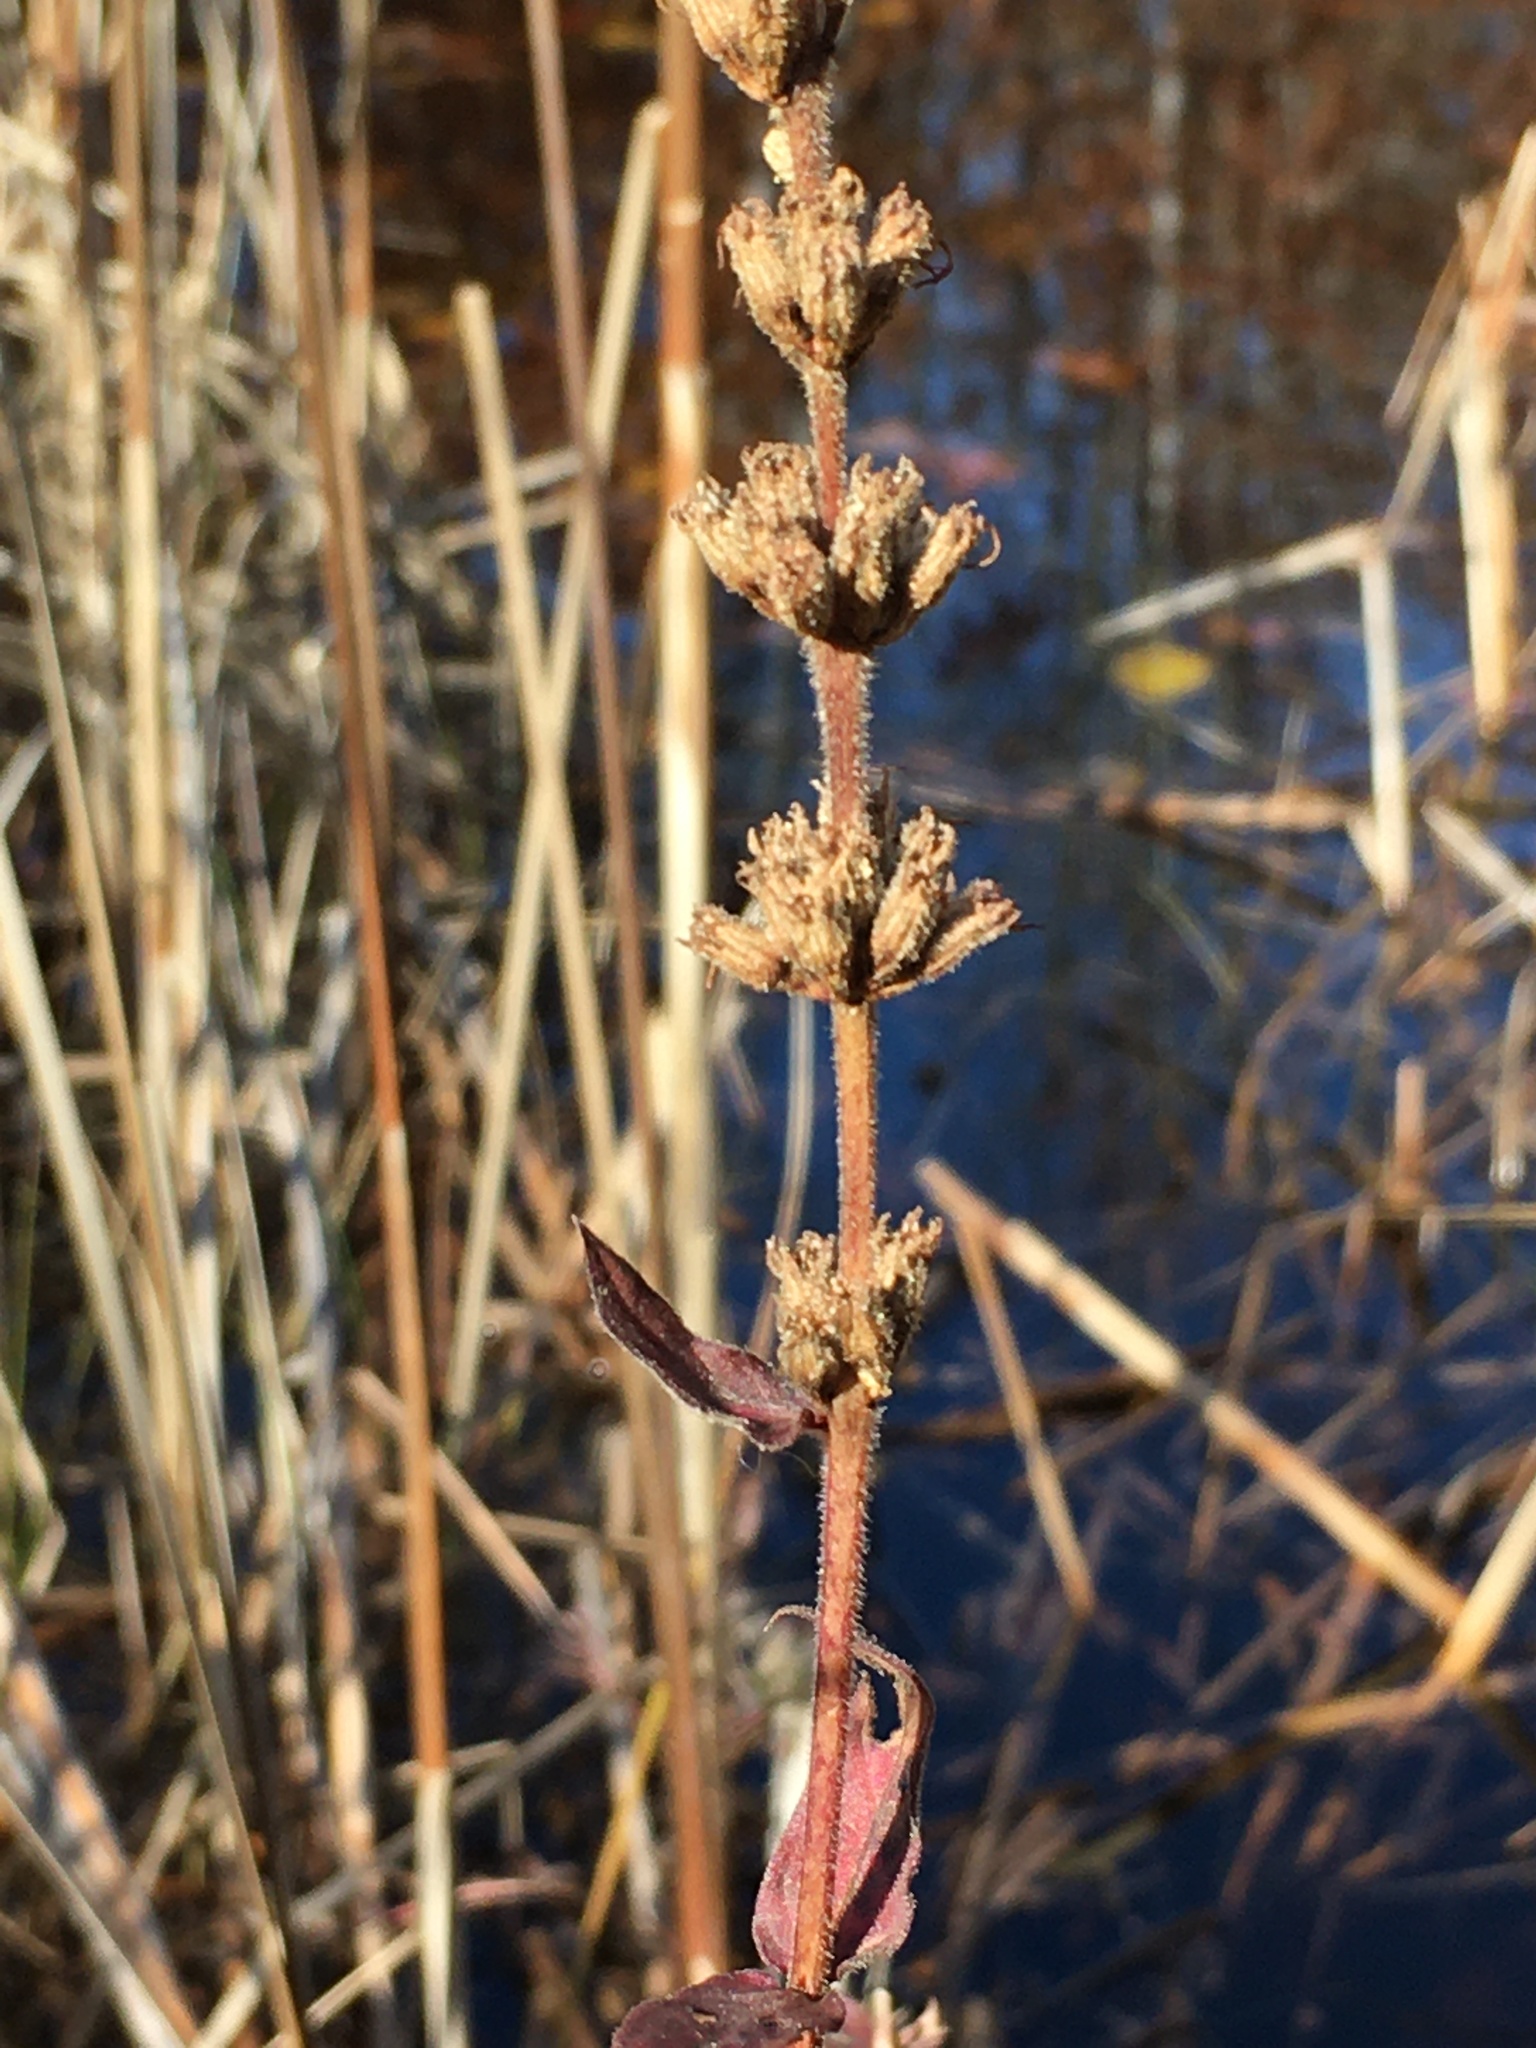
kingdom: Plantae
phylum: Tracheophyta
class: Magnoliopsida
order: Myrtales
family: Lythraceae
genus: Lythrum
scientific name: Lythrum salicaria
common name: Purple loosestrife
